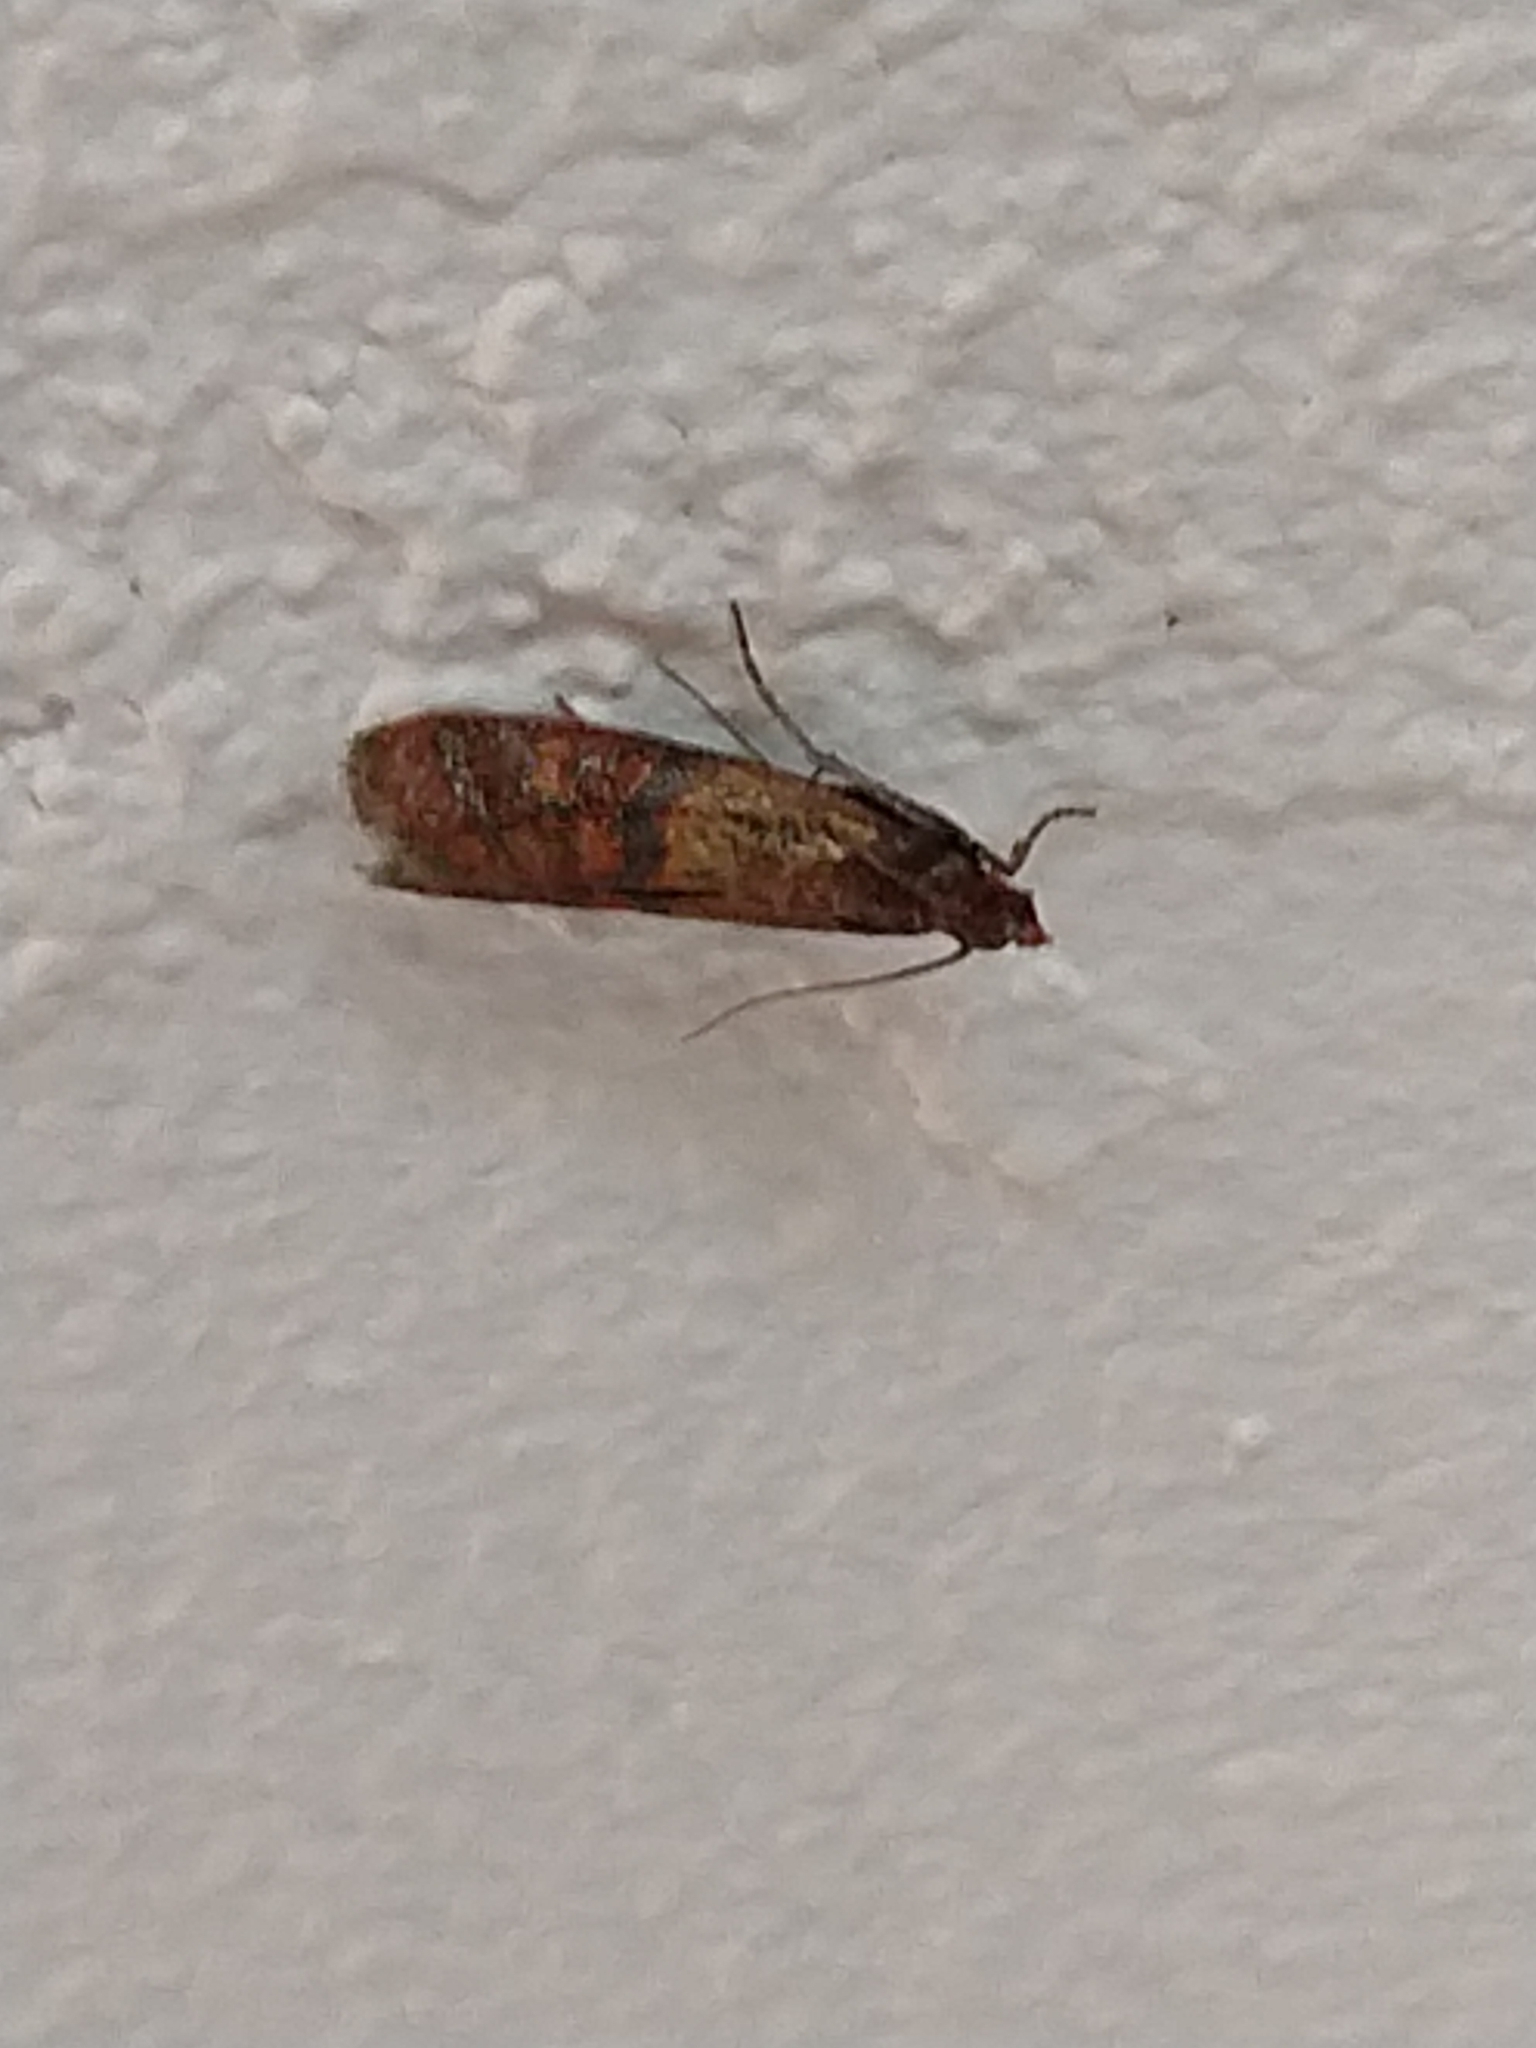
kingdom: Animalia
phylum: Arthropoda
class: Insecta
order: Lepidoptera
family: Pyralidae
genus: Plodia
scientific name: Plodia interpunctella
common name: Indian meal moth
